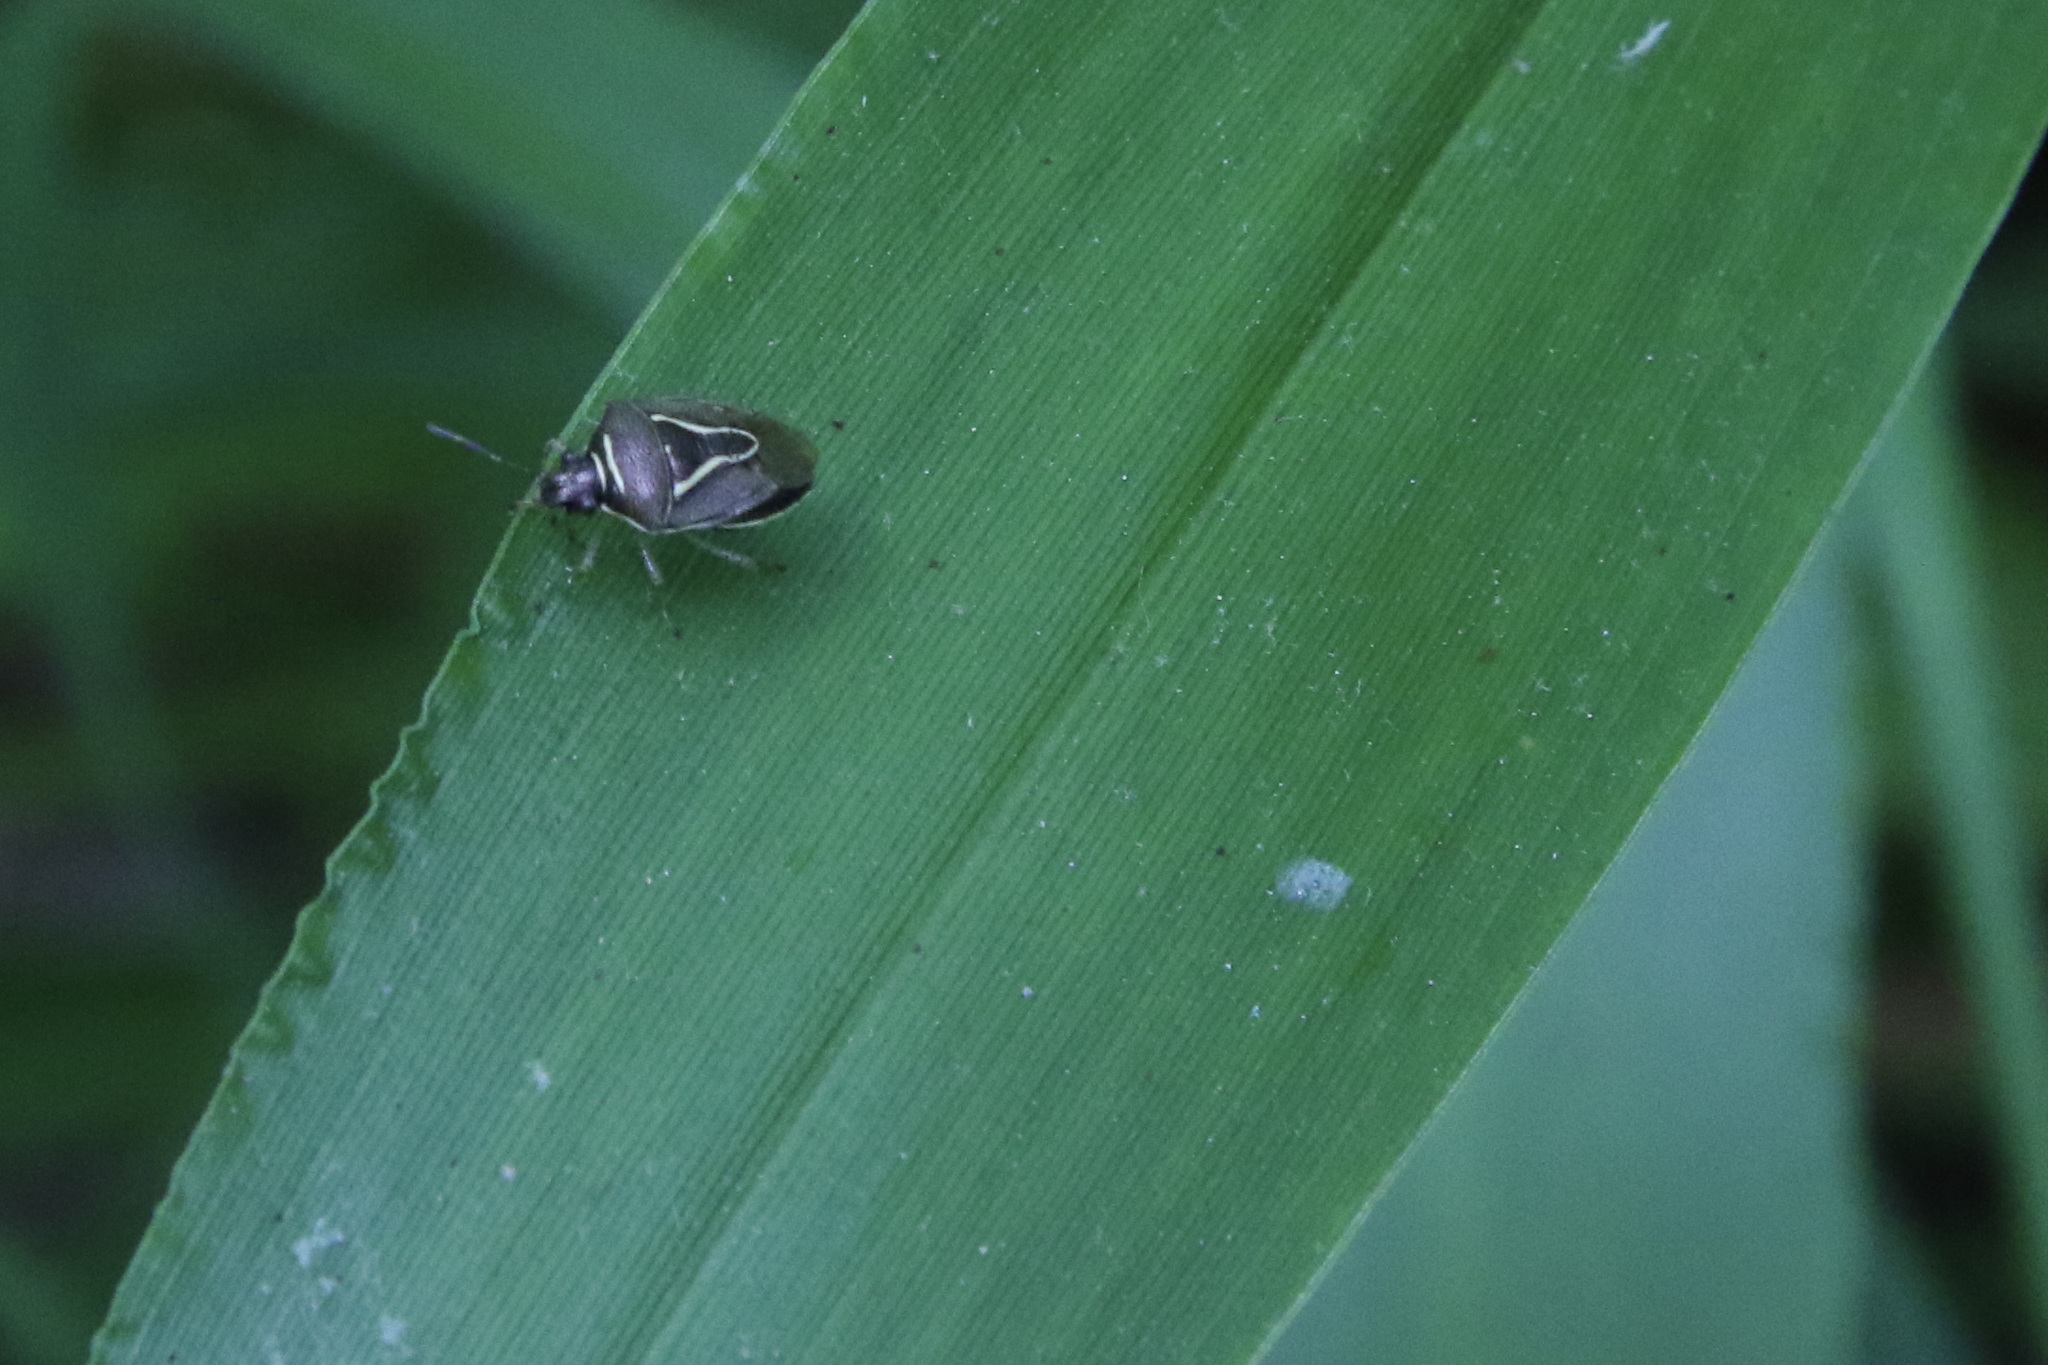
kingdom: Animalia
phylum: Arthropoda
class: Insecta
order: Hemiptera
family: Pentatomidae
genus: Mormidea
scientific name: Mormidea lugens
